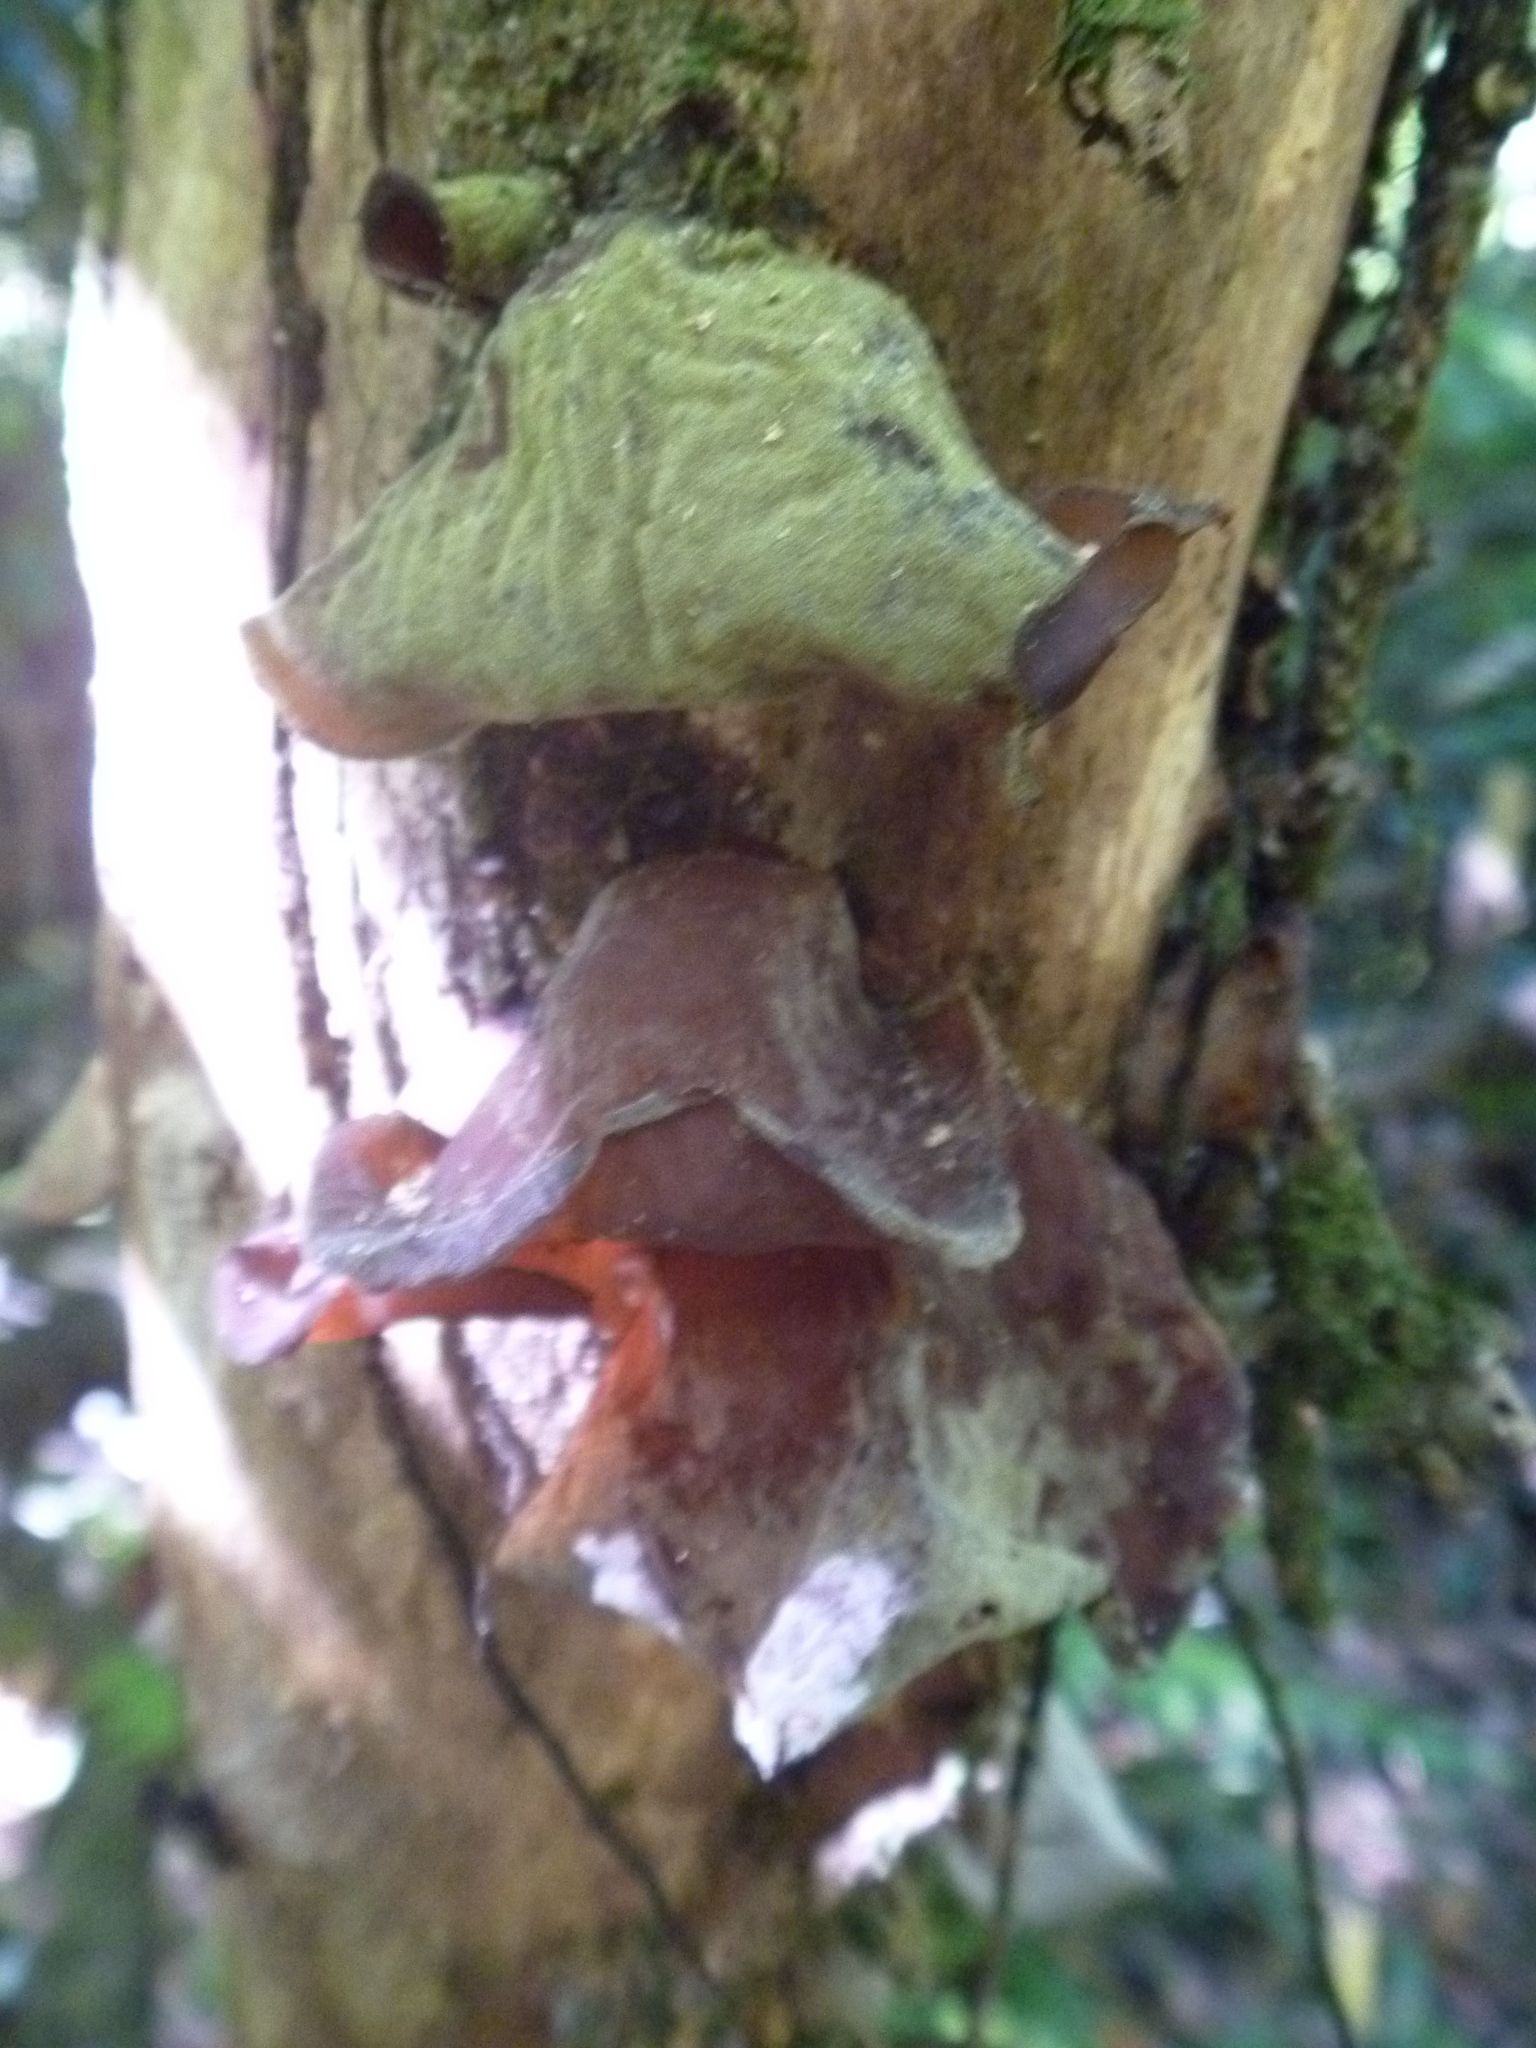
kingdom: Fungi
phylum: Basidiomycota
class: Agaricomycetes
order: Auriculariales
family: Auriculariaceae
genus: Auricularia
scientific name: Auricularia cornea
